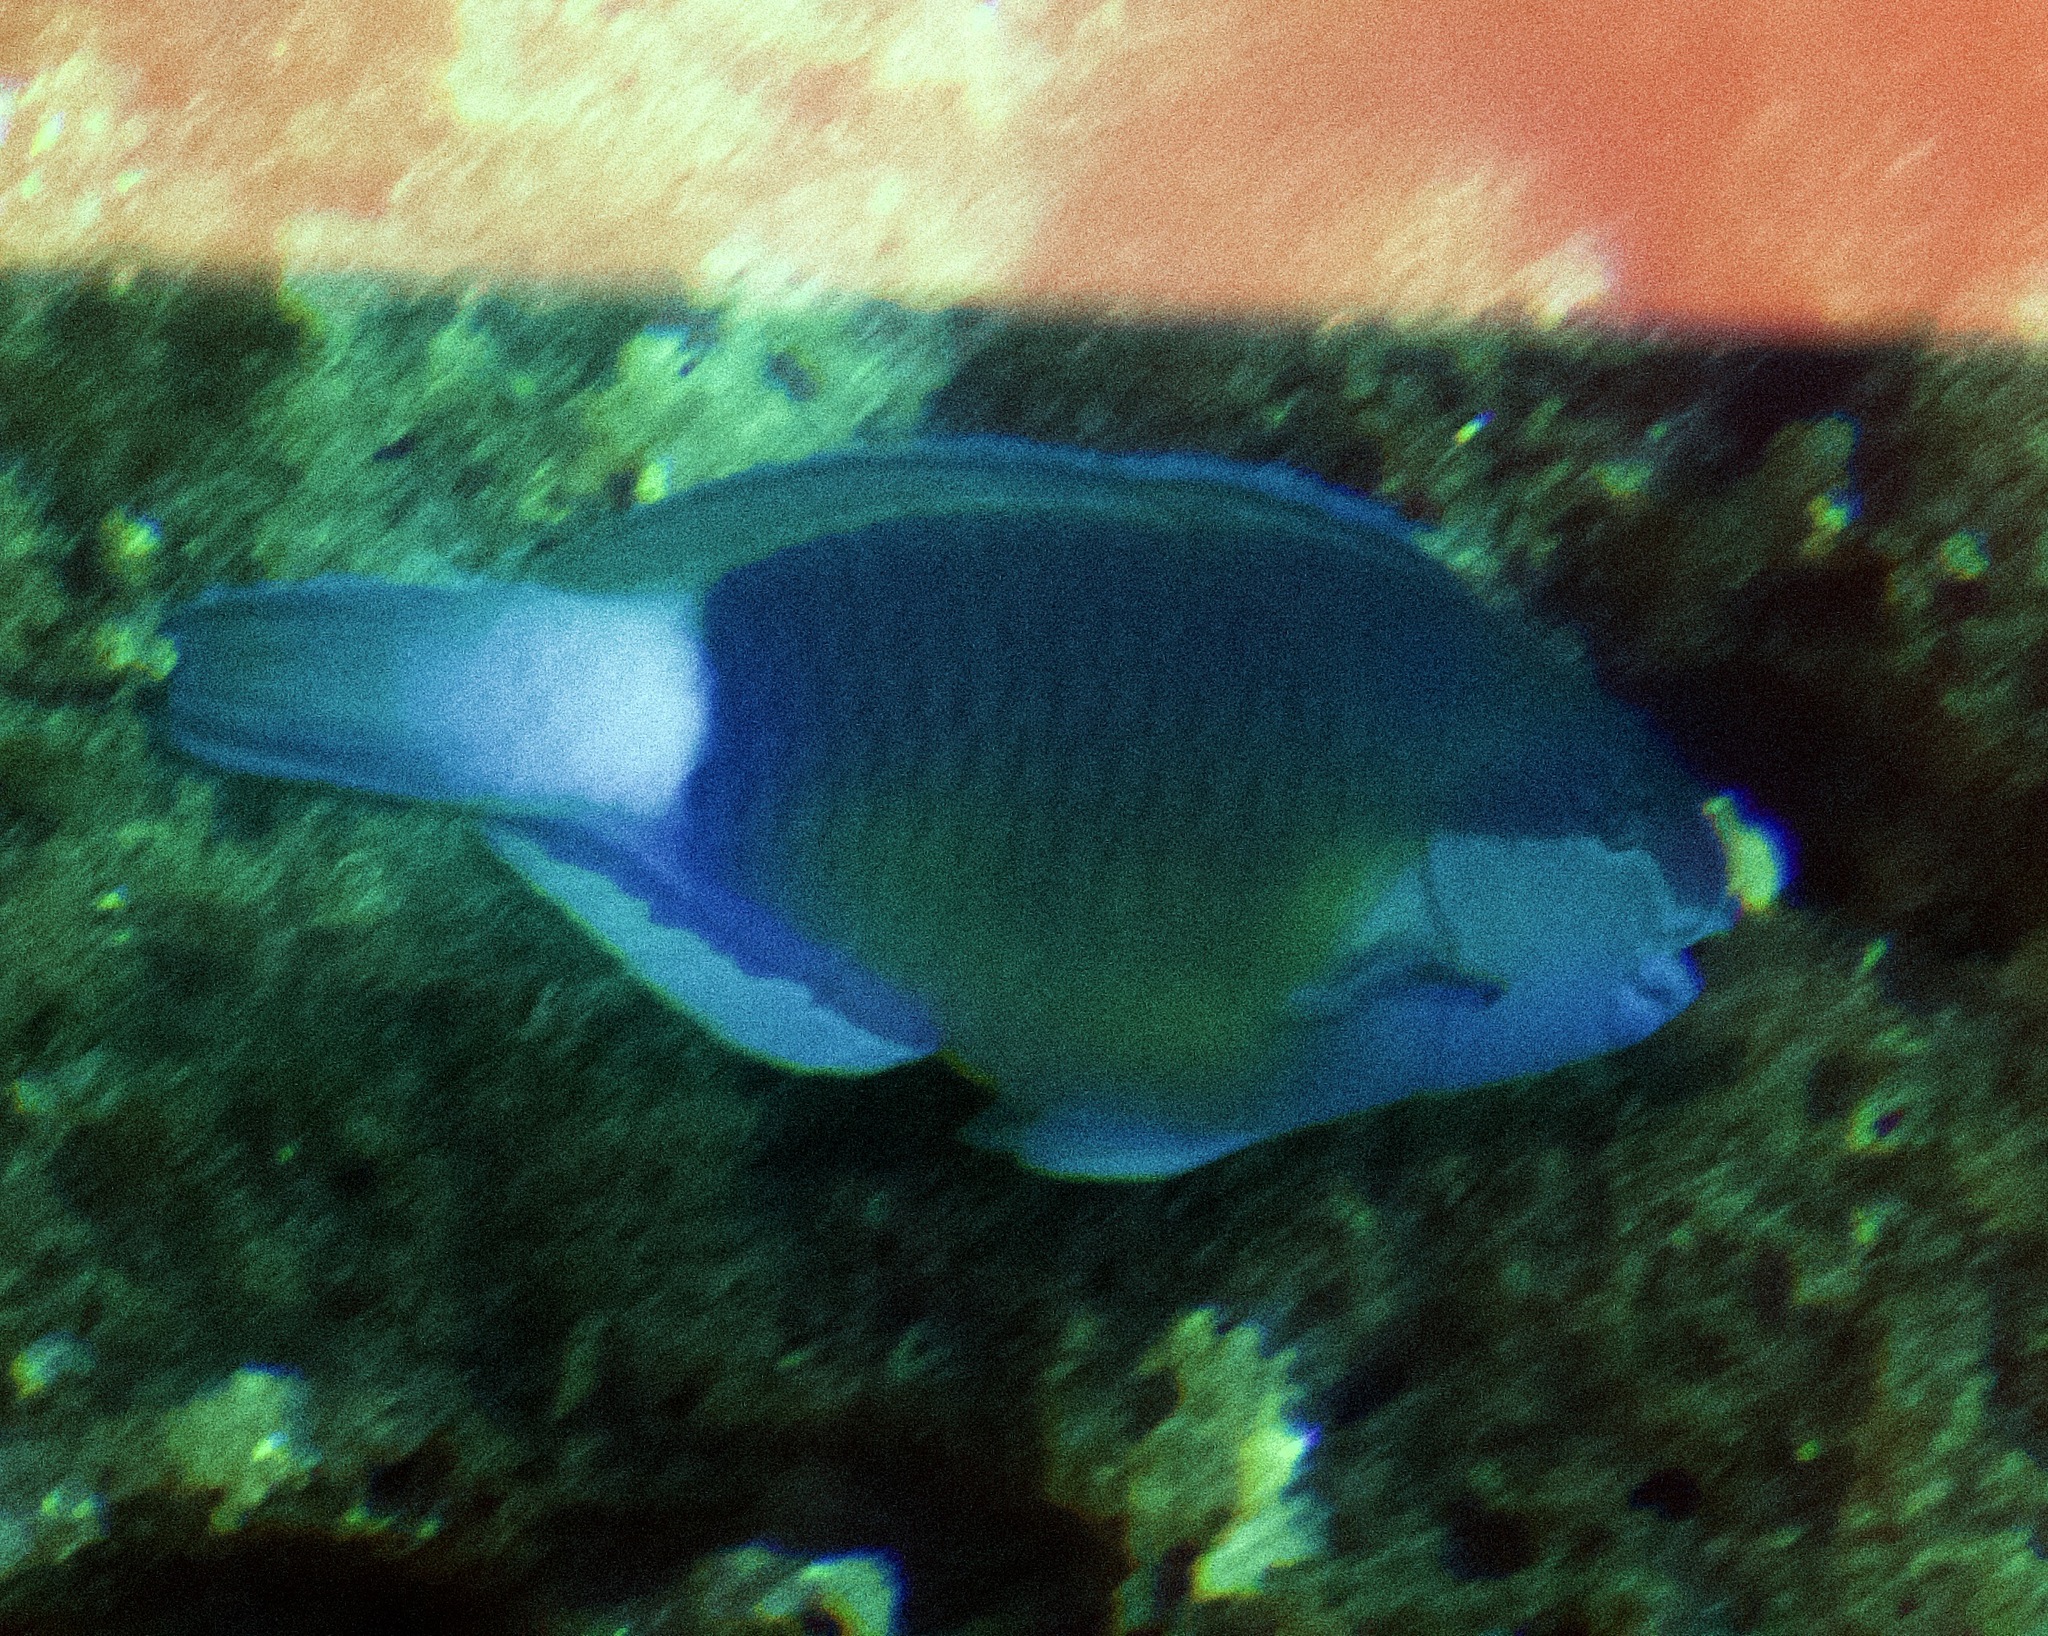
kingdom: Animalia
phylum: Chordata
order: Perciformes
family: Scaridae
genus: Chlorurus
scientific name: Chlorurus sordidus
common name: Bullethead parrotfish
